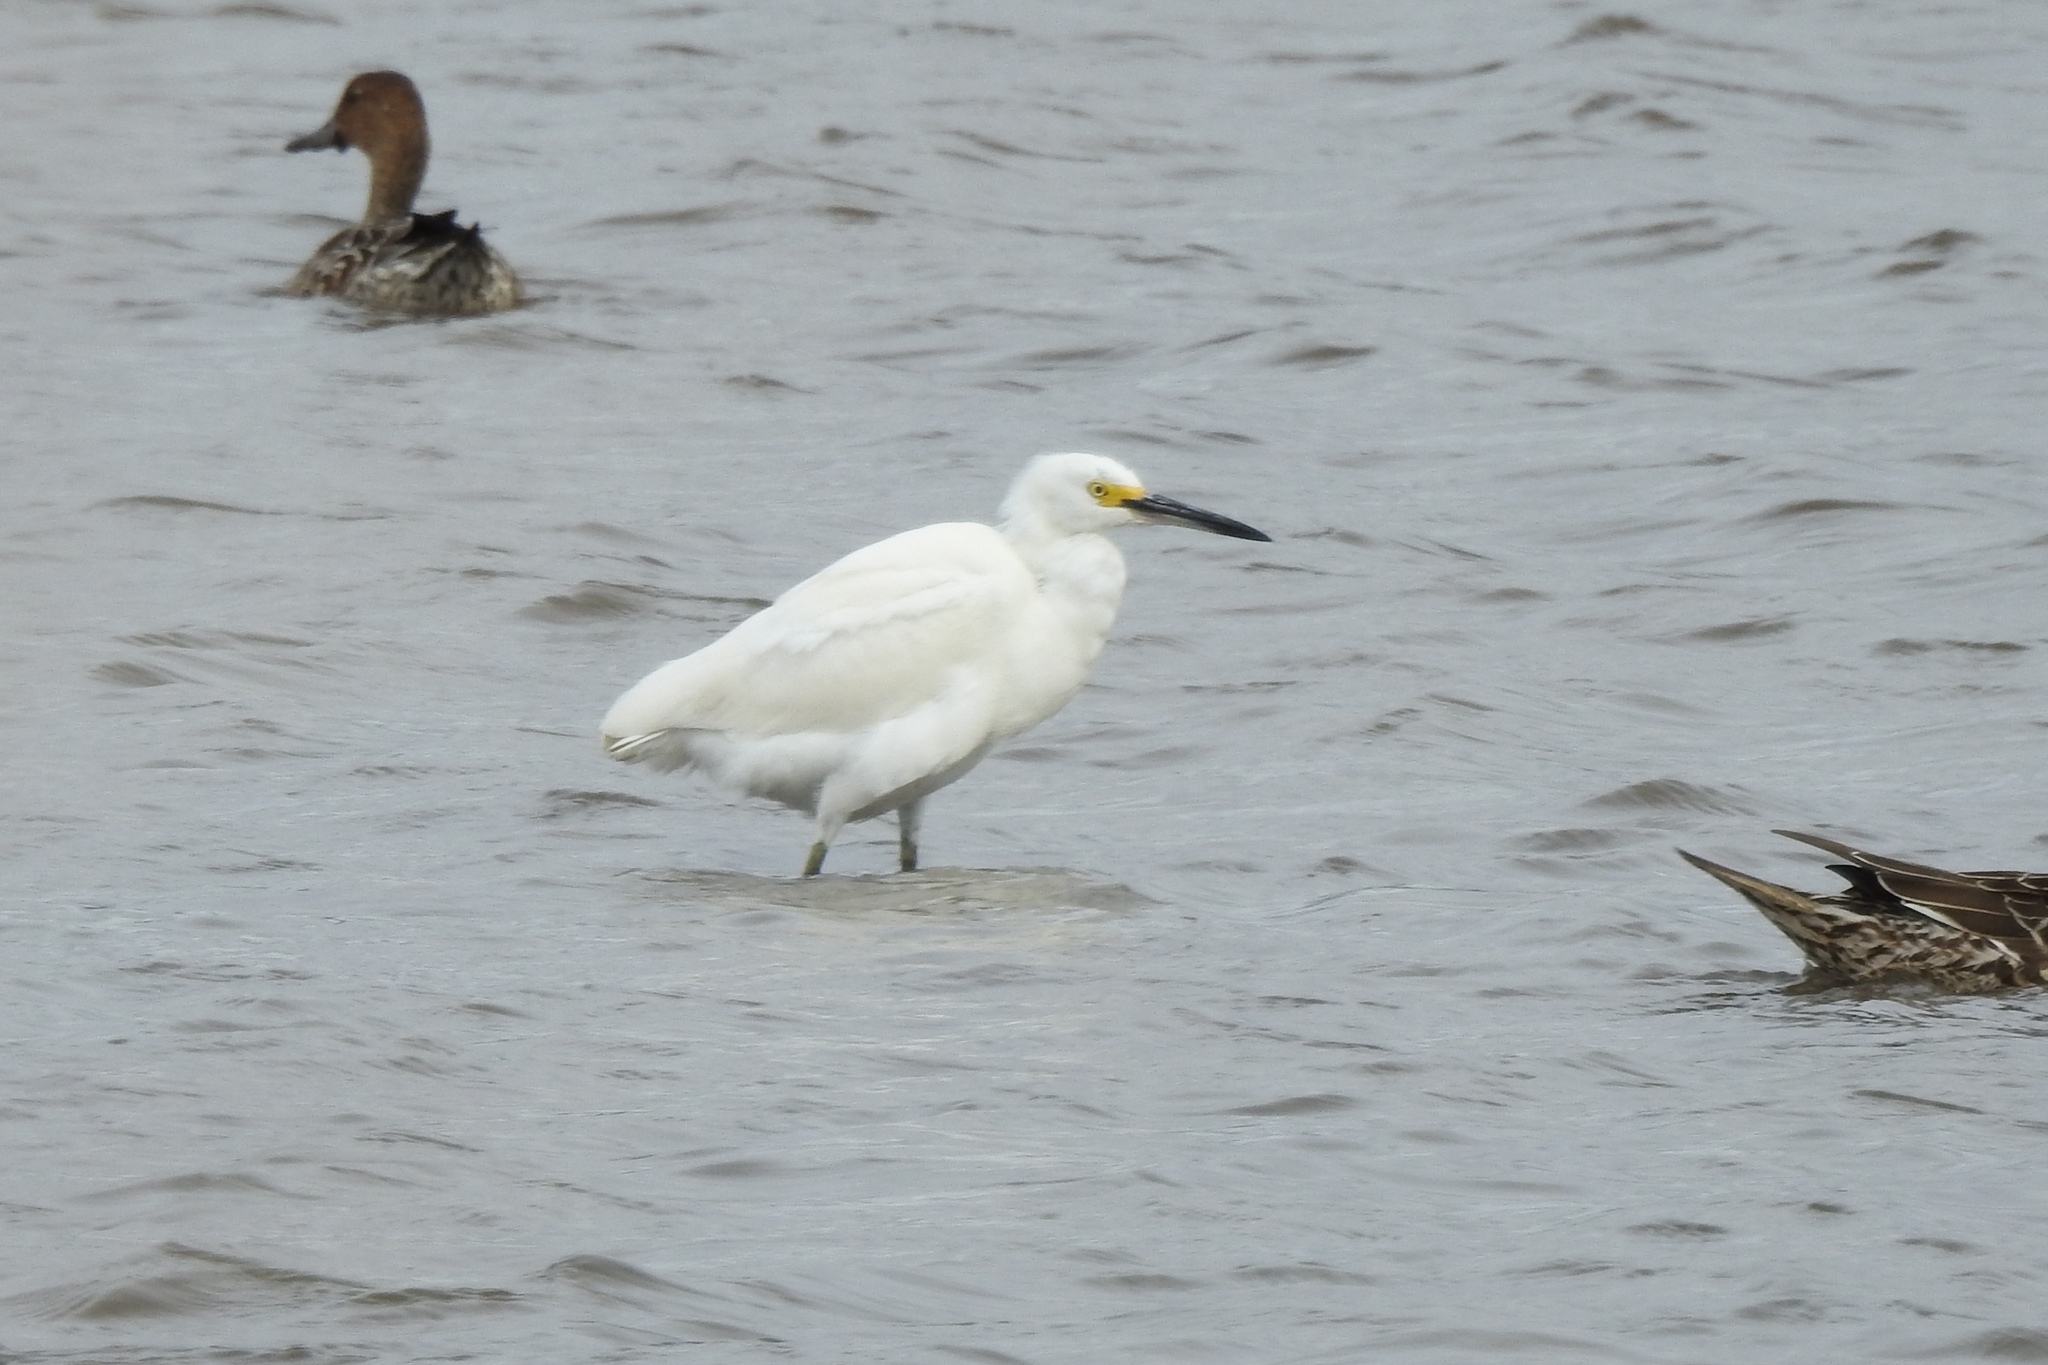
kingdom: Animalia
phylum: Chordata
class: Aves
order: Pelecaniformes
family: Ardeidae
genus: Egretta
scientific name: Egretta thula
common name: Snowy egret
